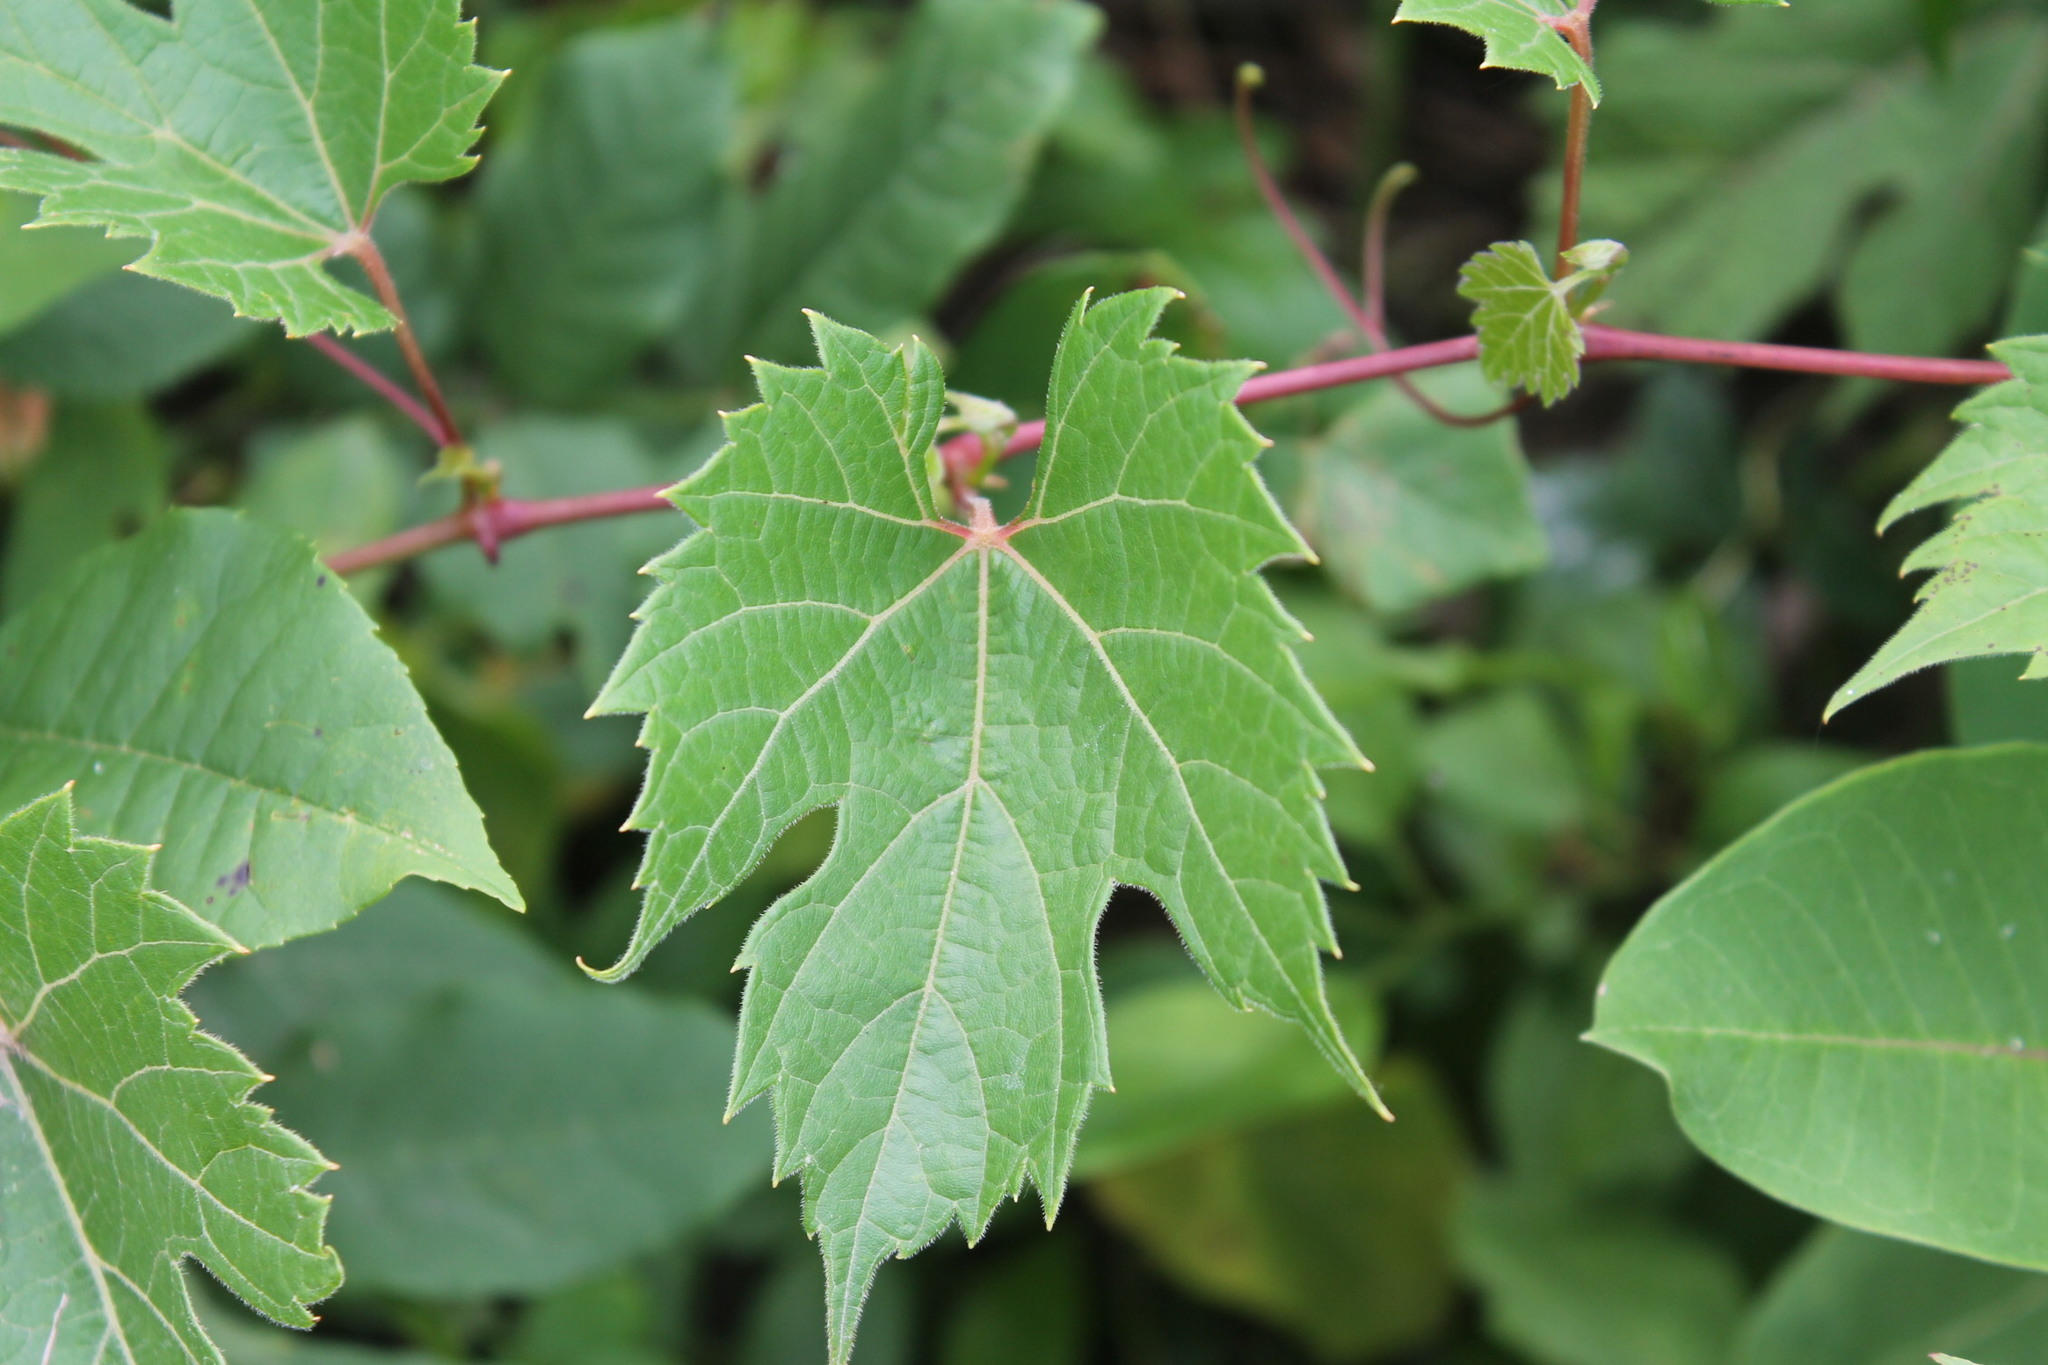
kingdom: Plantae
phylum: Tracheophyta
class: Magnoliopsida
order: Vitales
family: Vitaceae
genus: Vitis
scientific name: Vitis riparia
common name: Frost grape
